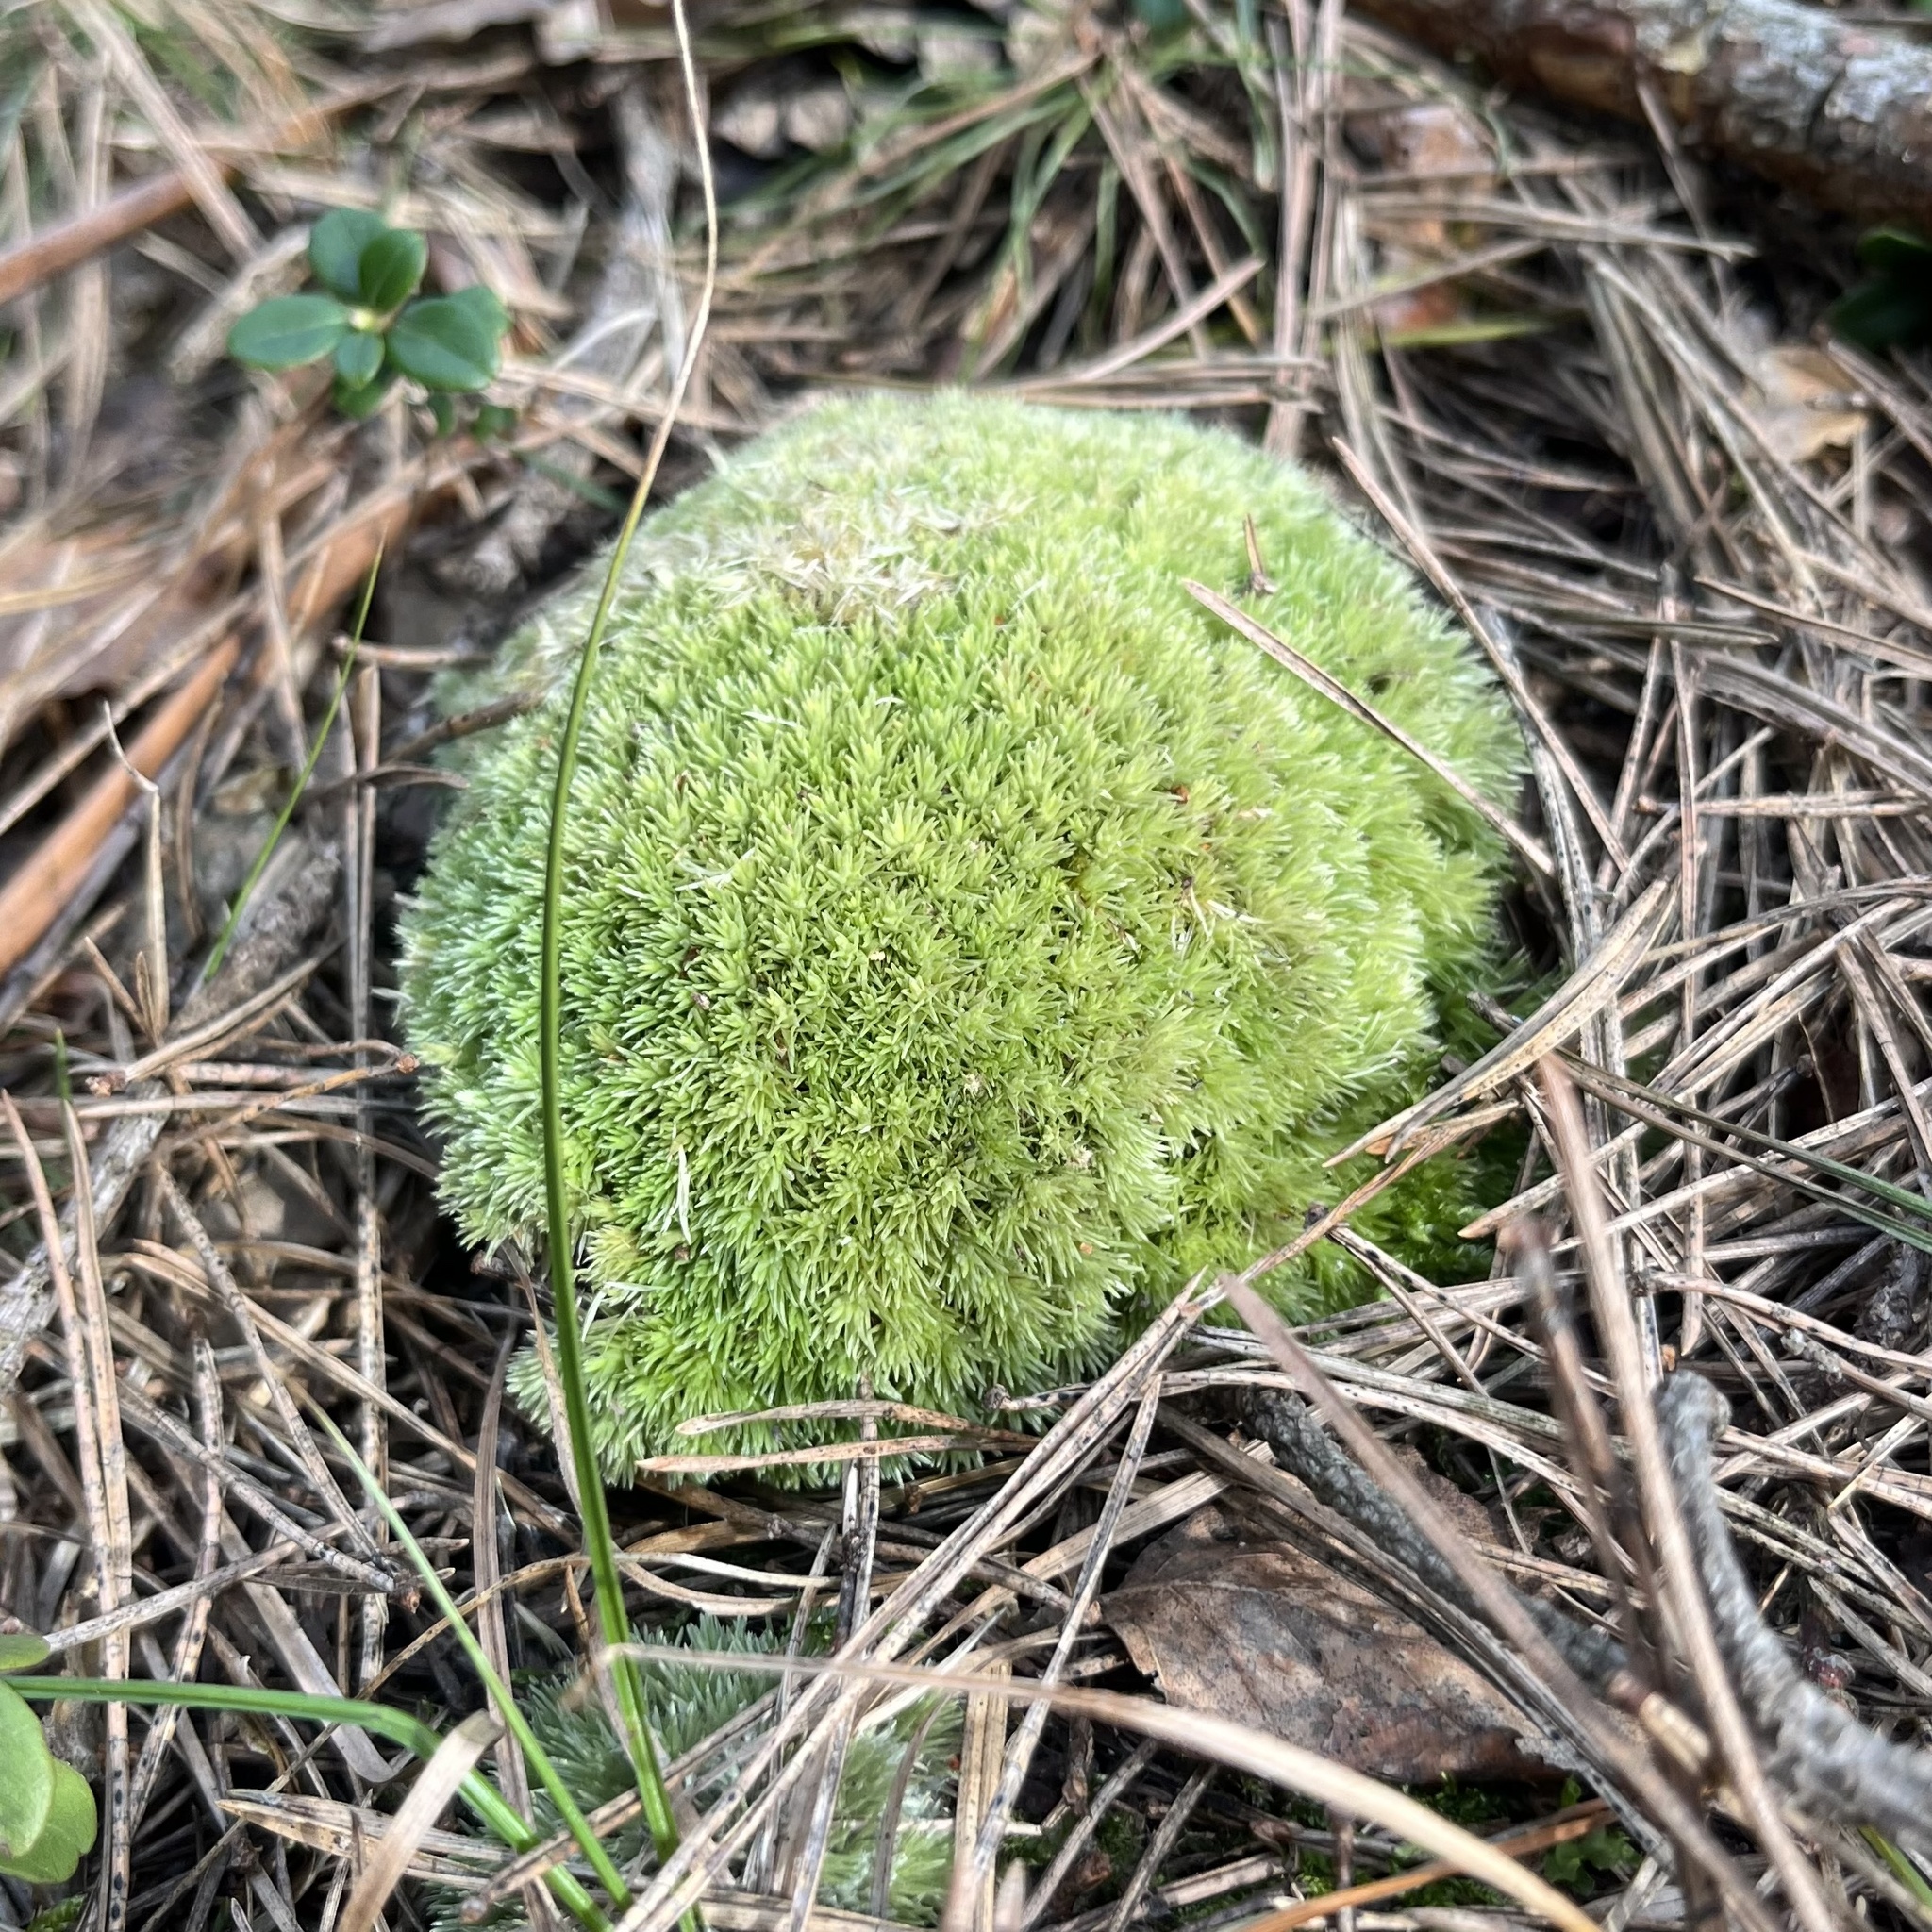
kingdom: Plantae
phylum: Bryophyta
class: Bryopsida
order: Dicranales
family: Leucobryaceae
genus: Leucobryum
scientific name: Leucobryum glaucum
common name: Large white-moss
